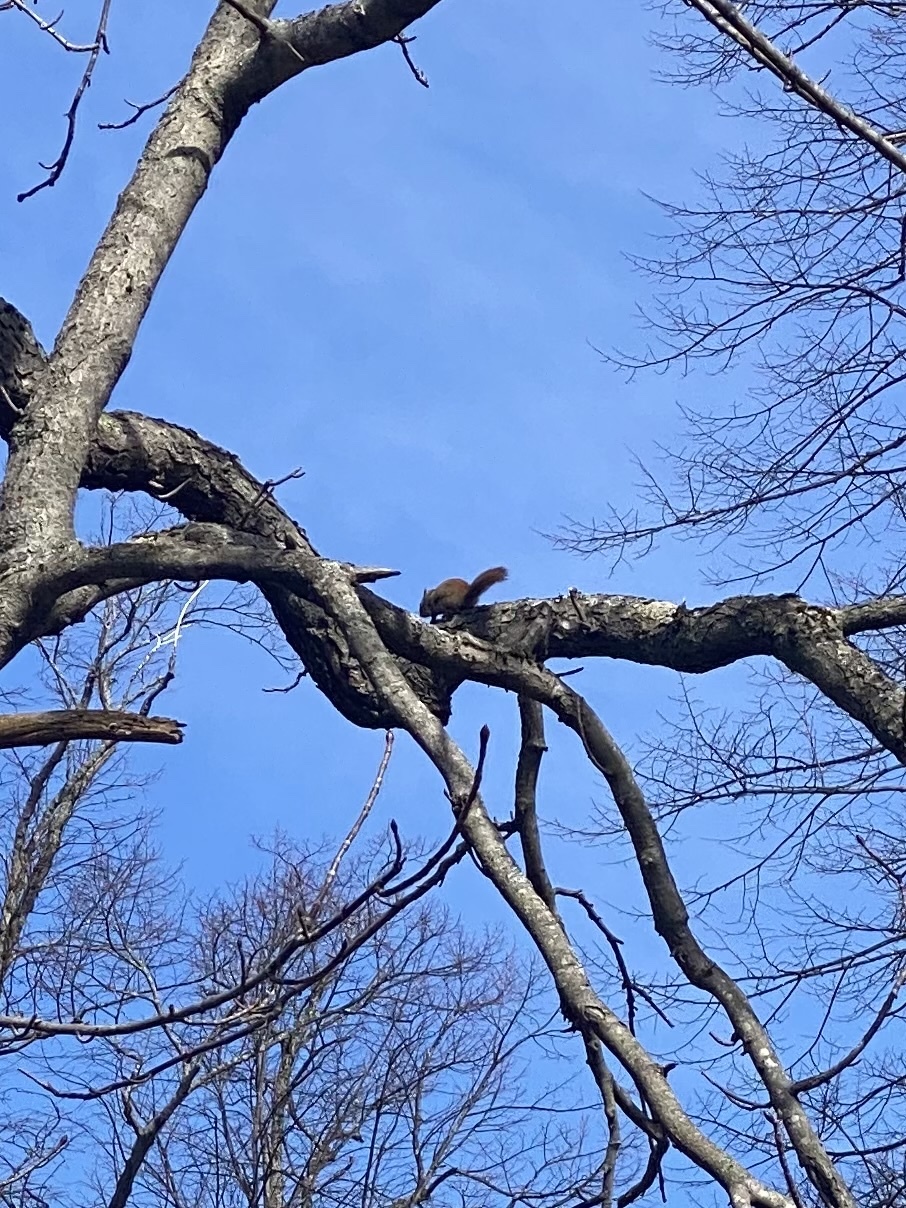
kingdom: Animalia
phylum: Chordata
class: Mammalia
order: Rodentia
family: Sciuridae
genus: Tamiasciurus
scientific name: Tamiasciurus hudsonicus
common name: Red squirrel
